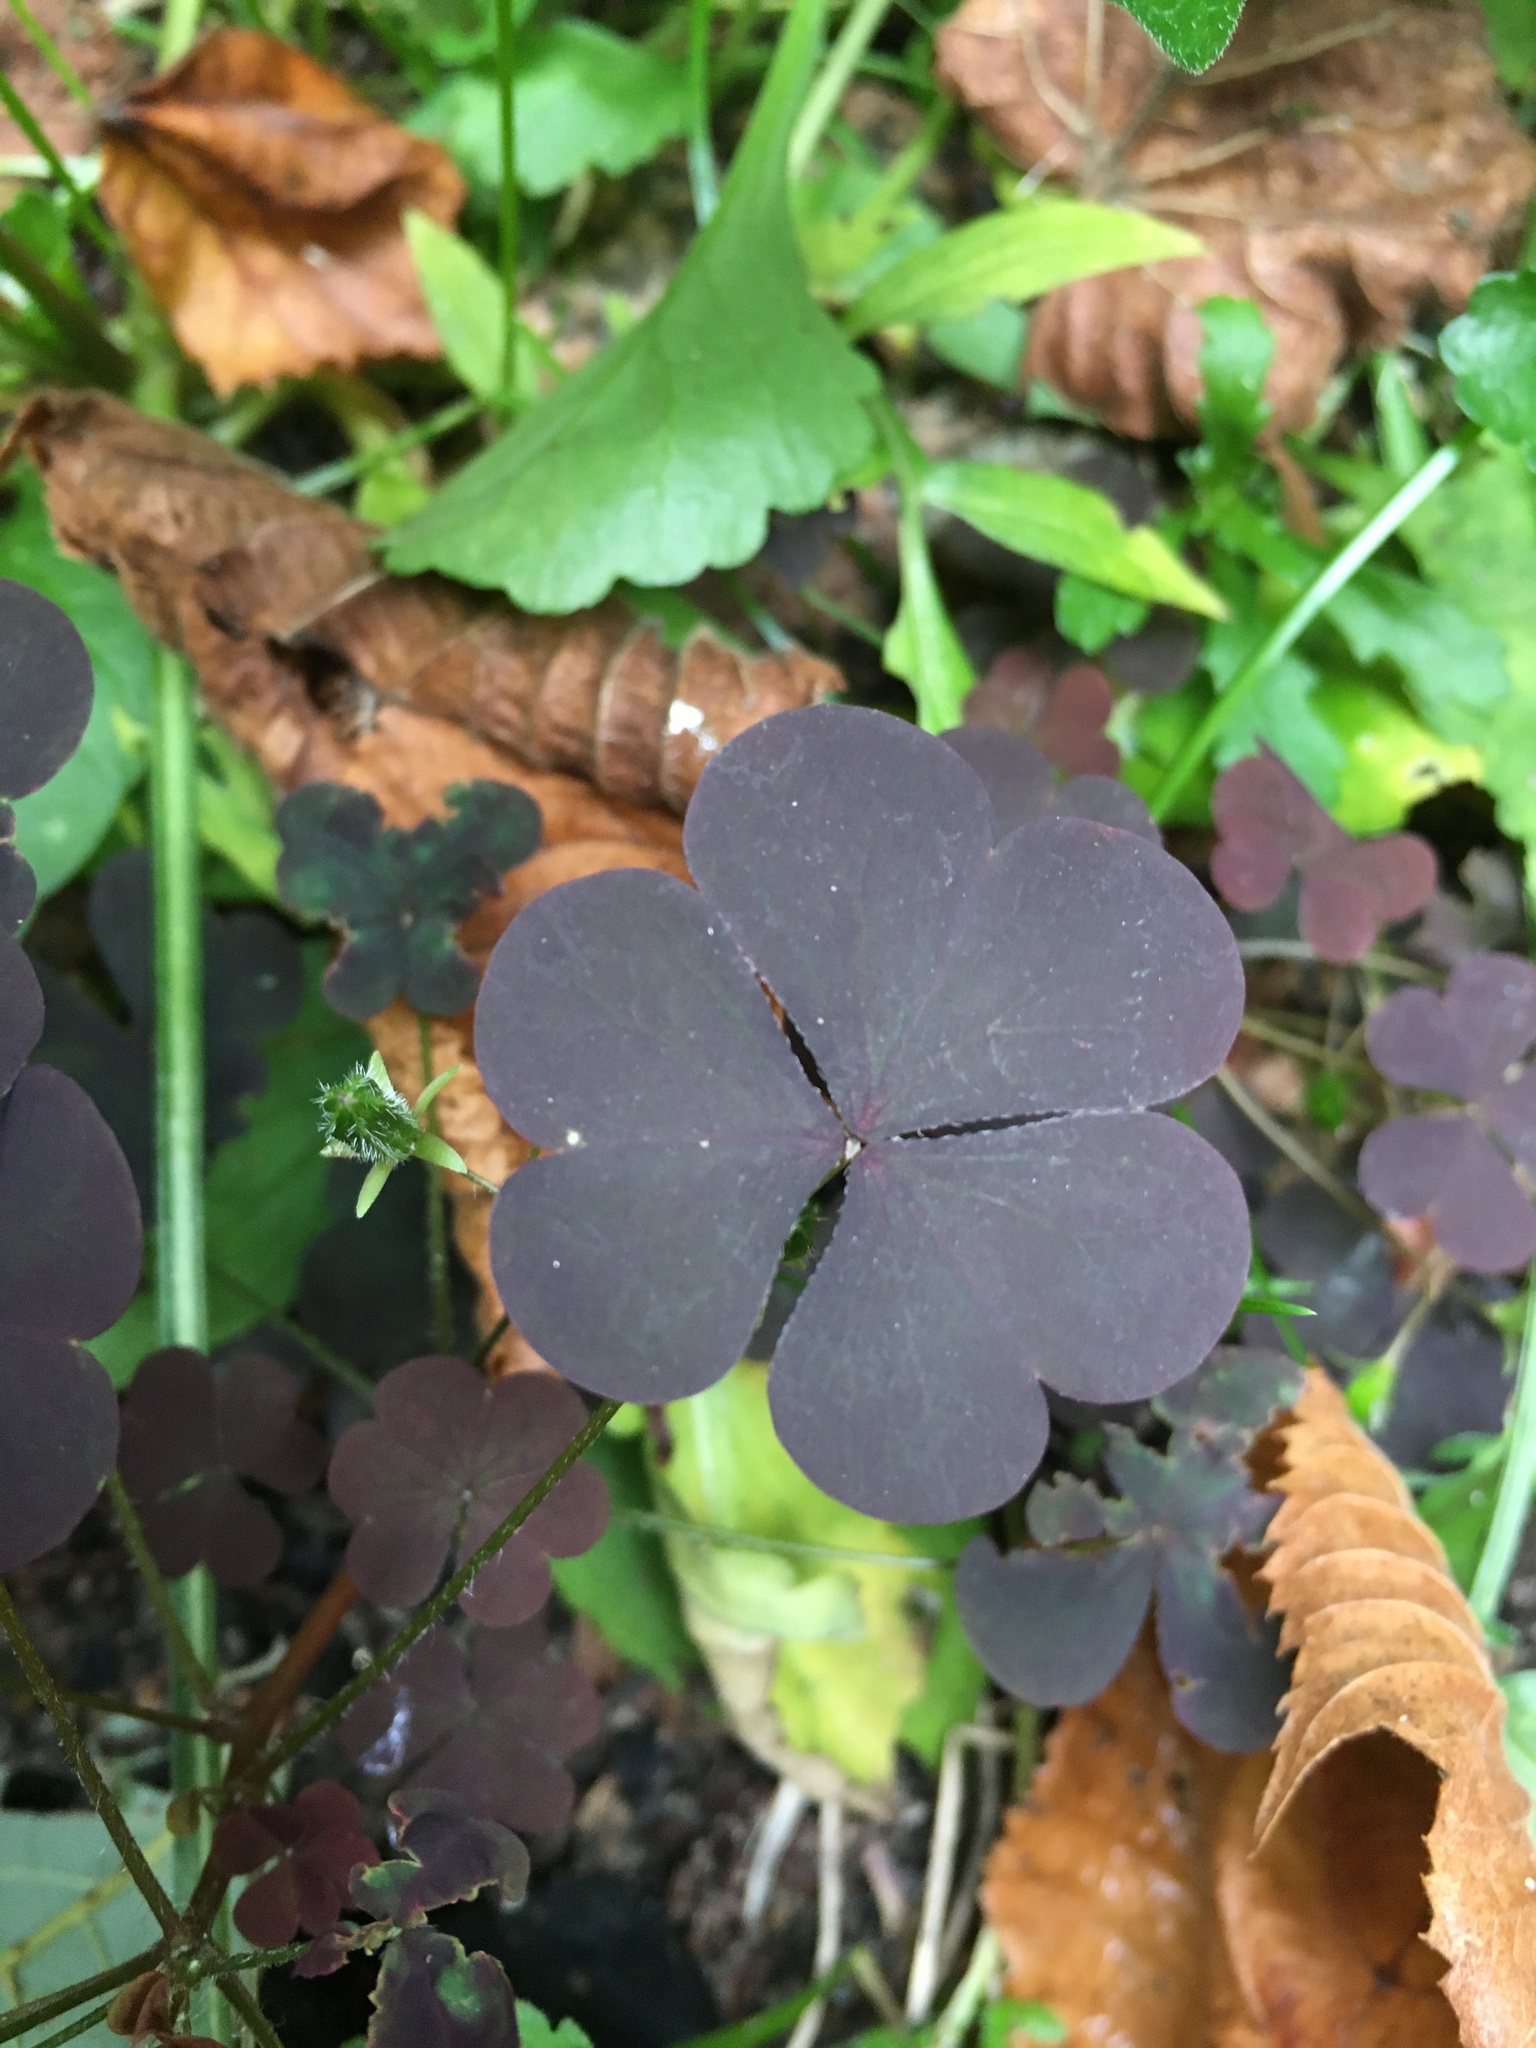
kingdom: Plantae
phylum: Tracheophyta
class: Magnoliopsida
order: Oxalidales
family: Oxalidaceae
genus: Oxalis
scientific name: Oxalis stricta
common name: Upright yellow-sorrel
